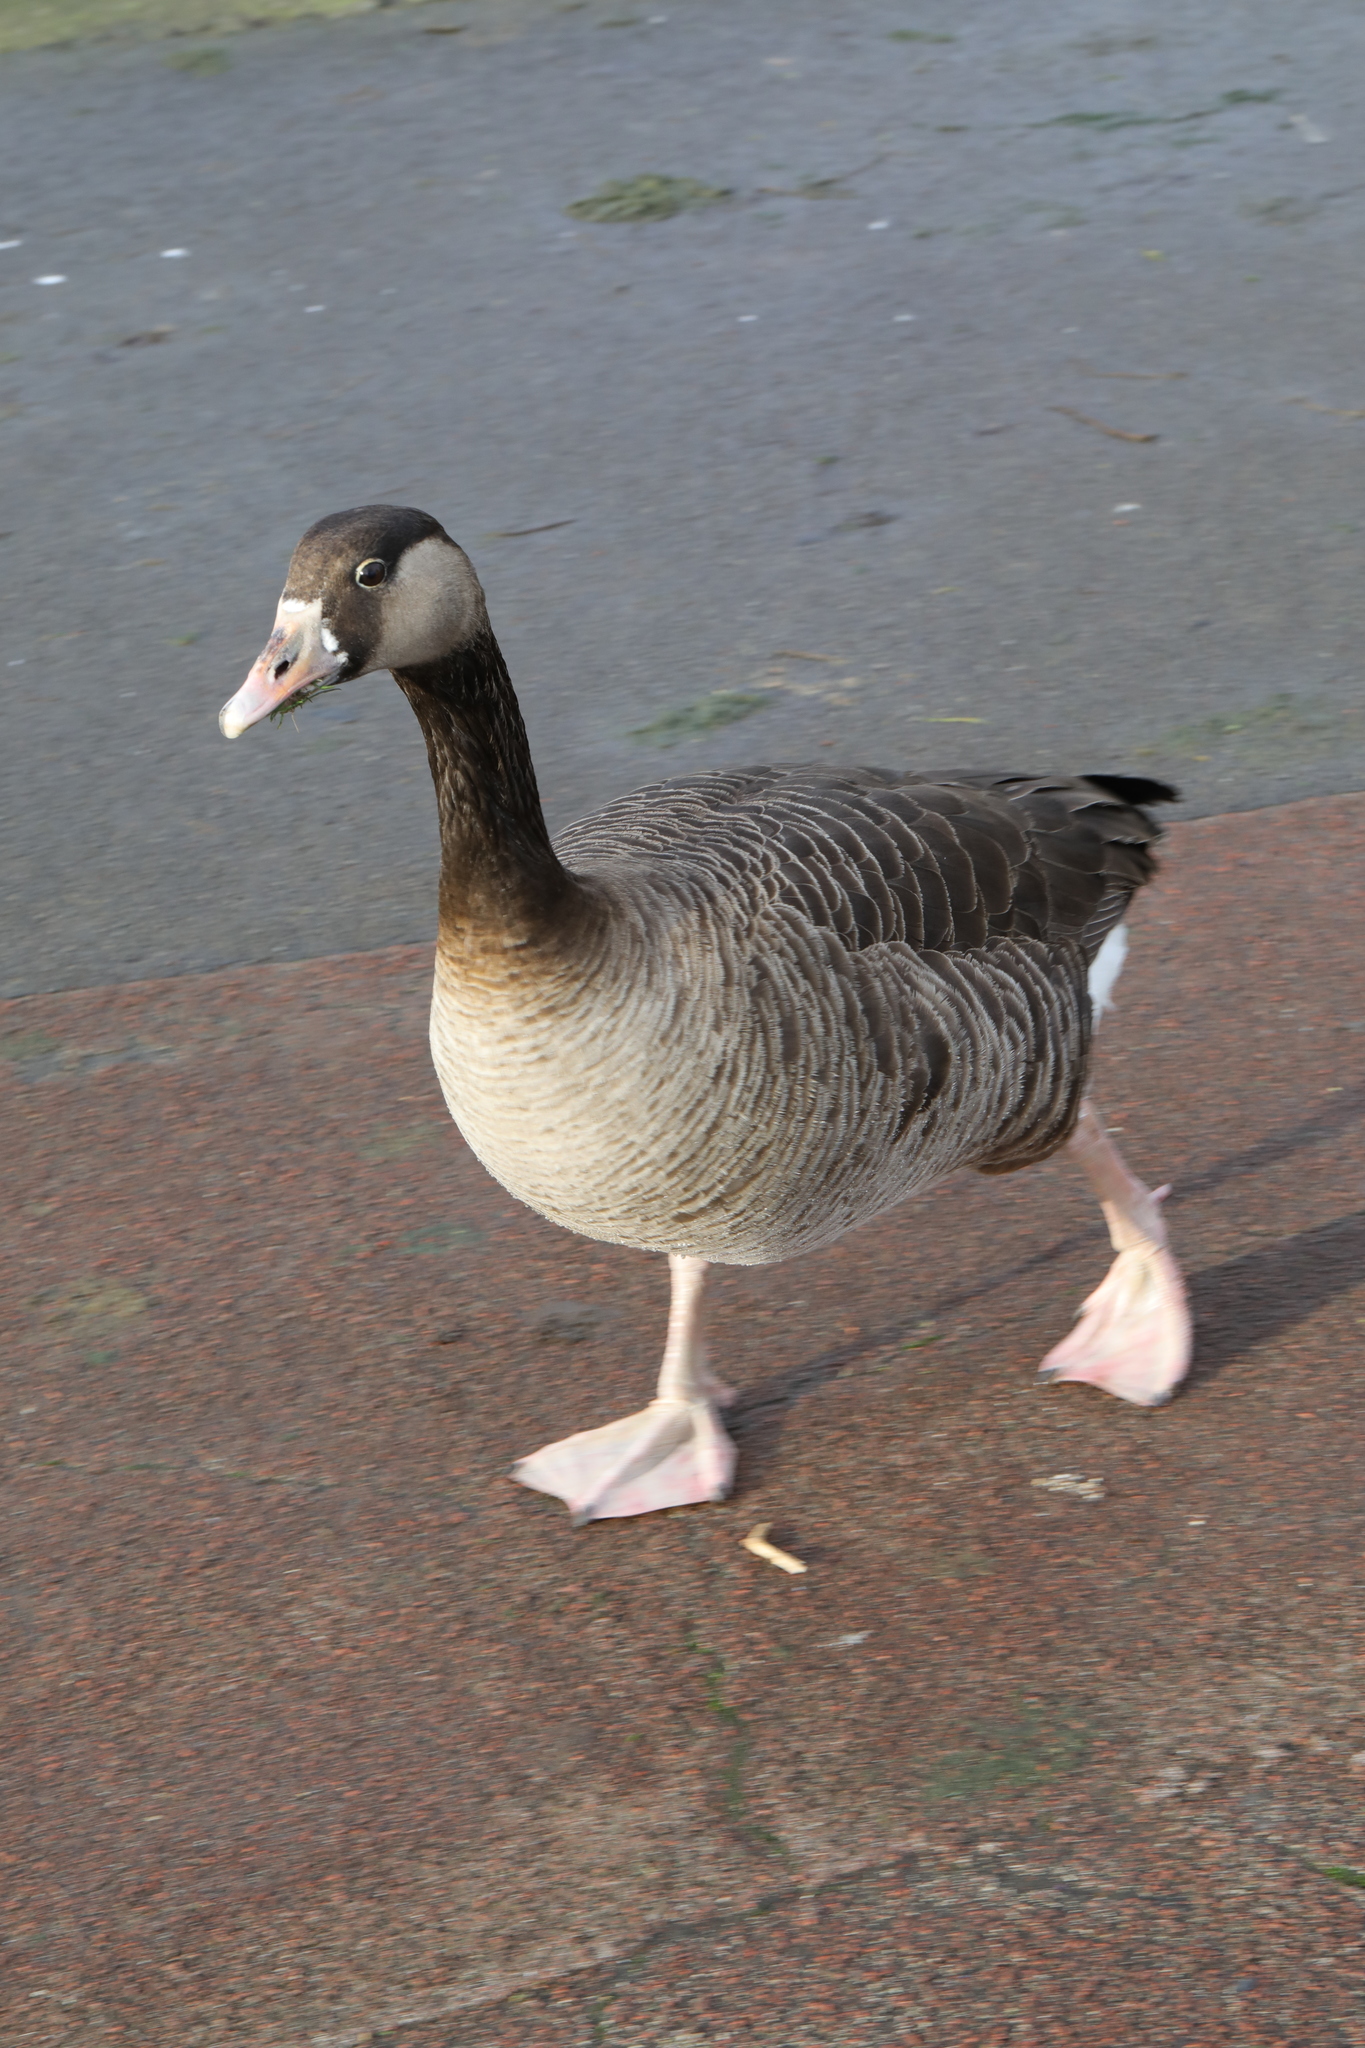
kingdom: Animalia
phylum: Chordata
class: Aves
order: Anseriformes
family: Anatidae
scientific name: Anatidae
